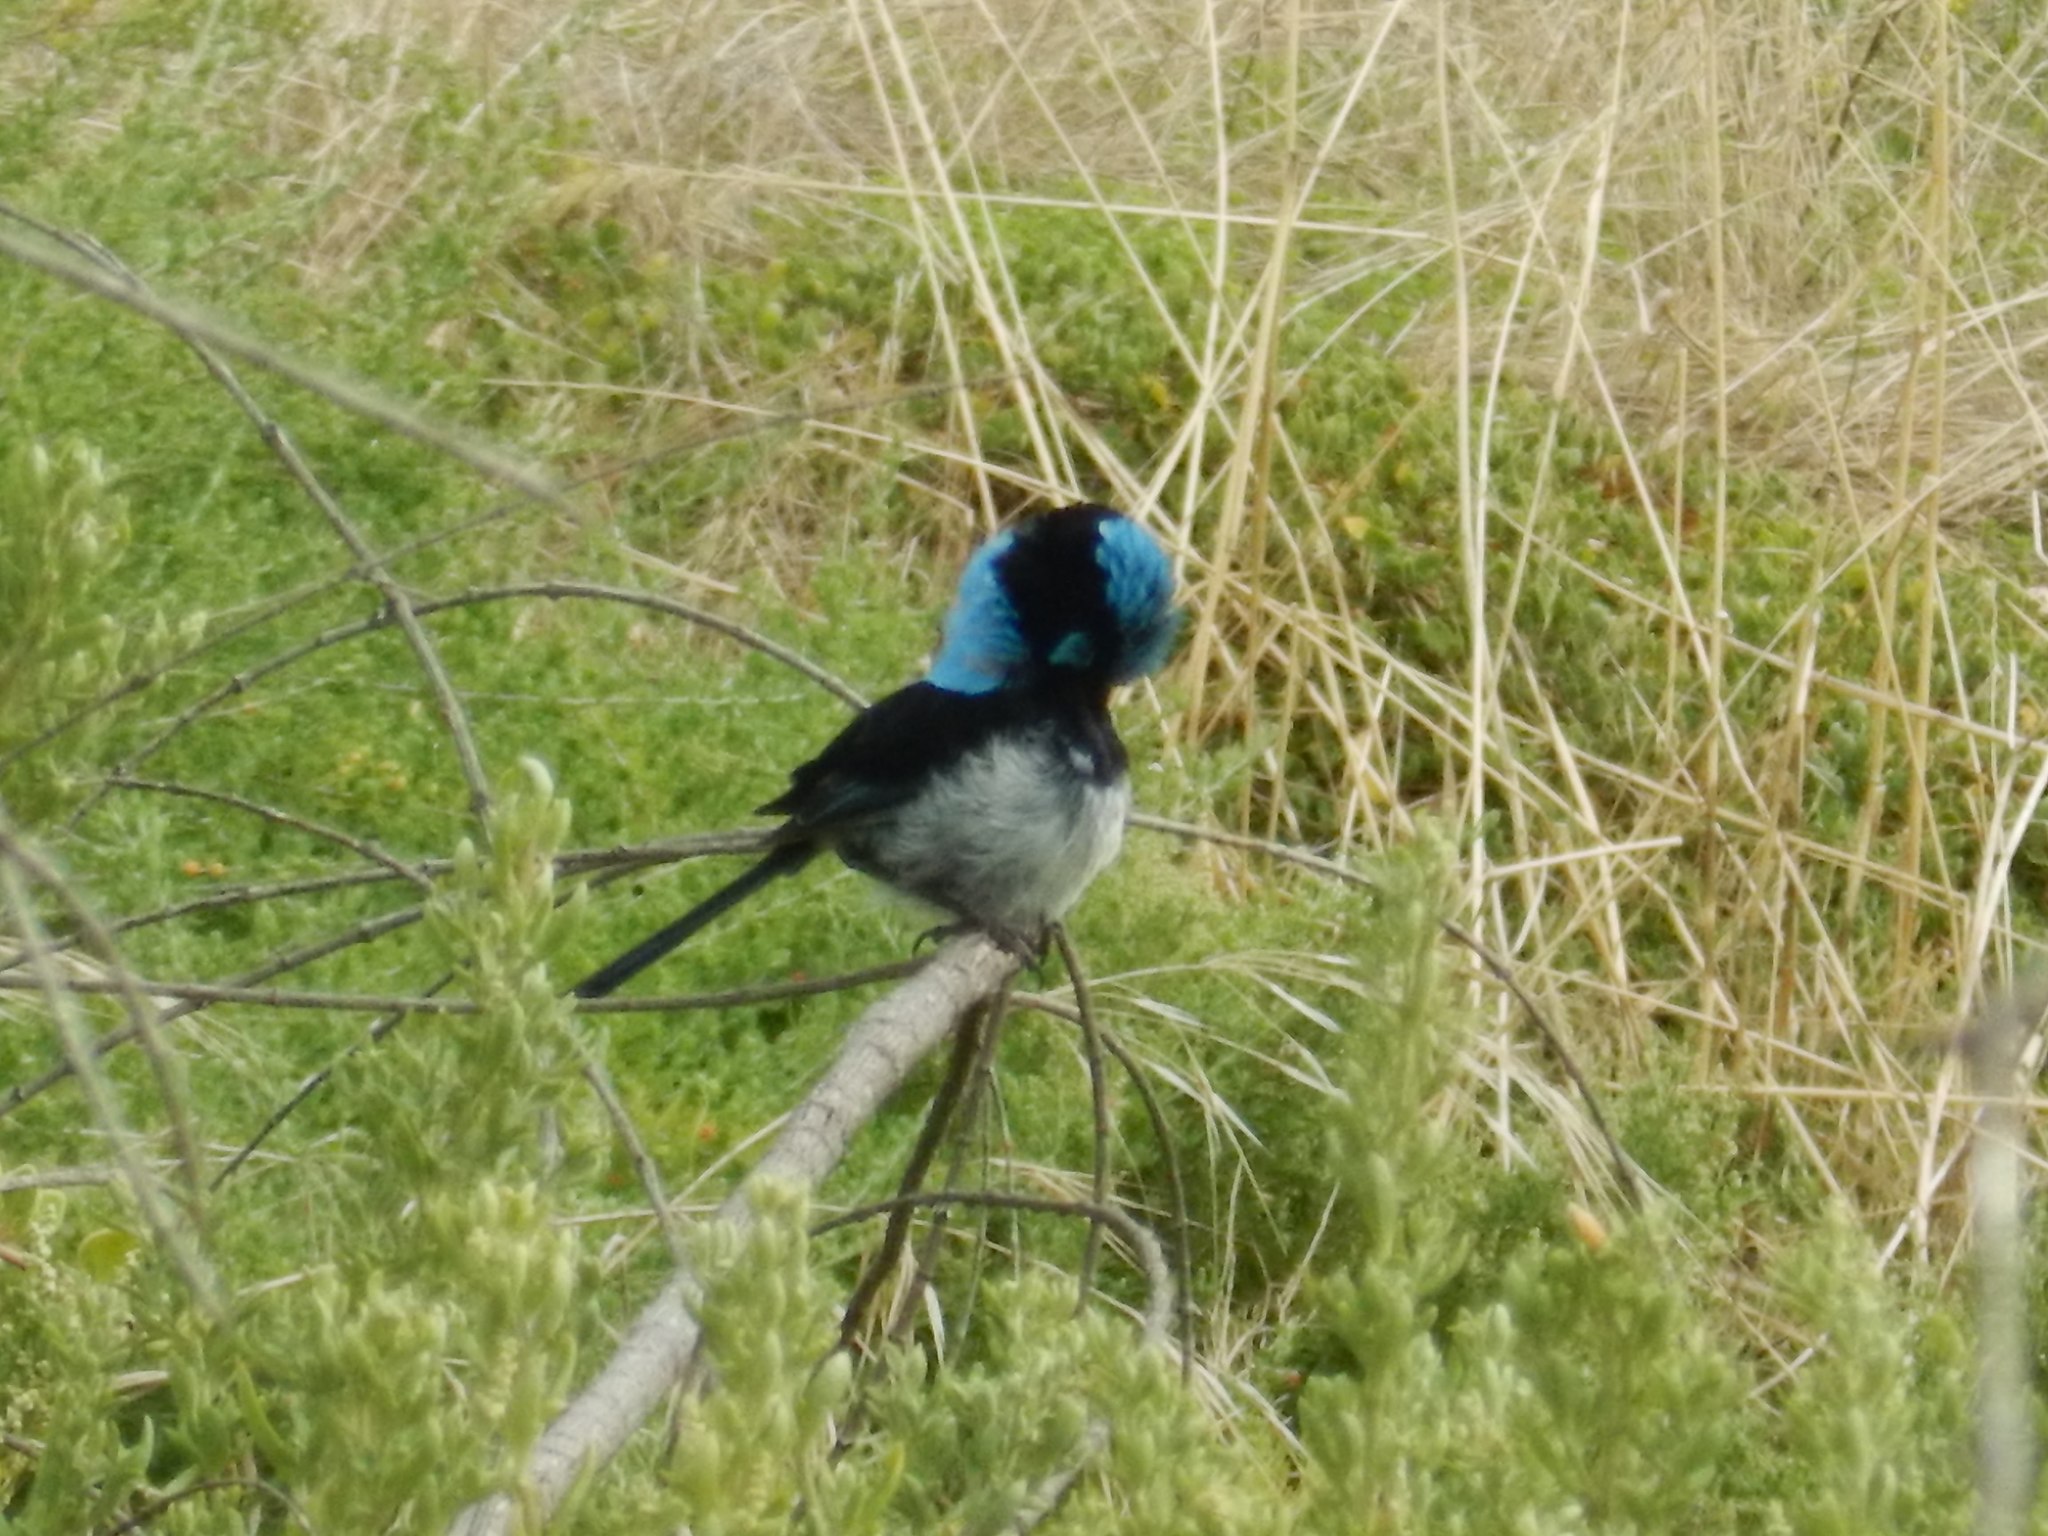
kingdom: Animalia
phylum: Chordata
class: Aves
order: Passeriformes
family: Maluridae
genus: Malurus
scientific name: Malurus cyaneus
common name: Superb fairywren
